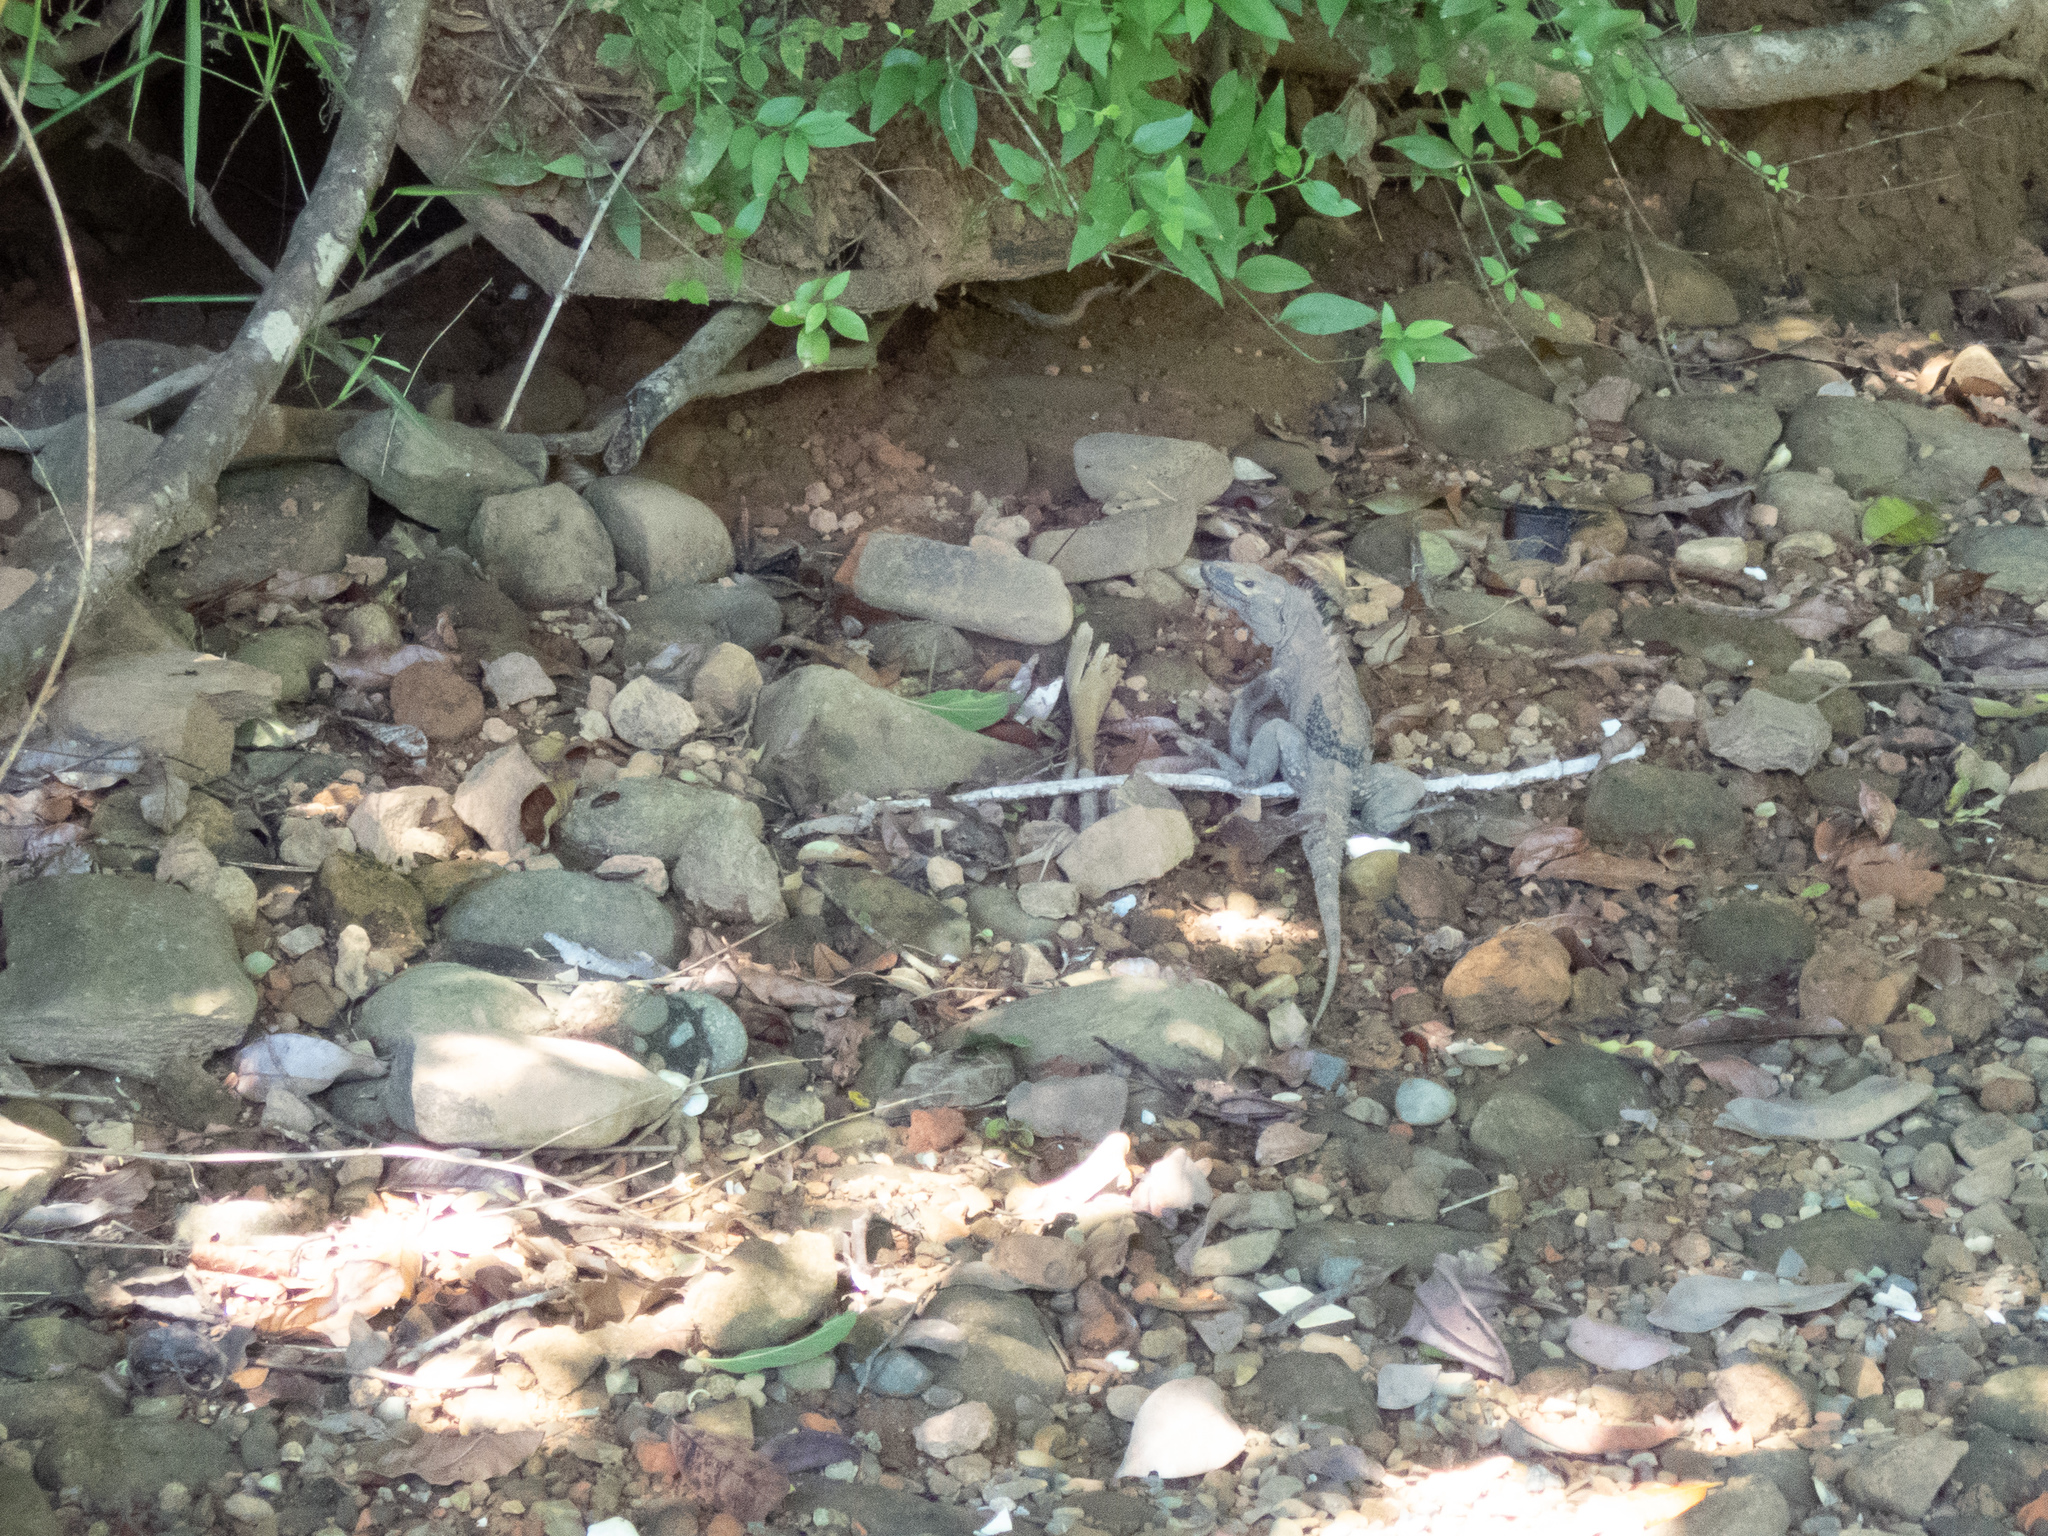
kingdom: Animalia
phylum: Chordata
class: Squamata
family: Iguanidae
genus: Ctenosaura
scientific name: Ctenosaura similis
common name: Black spiny-tailed iguana
